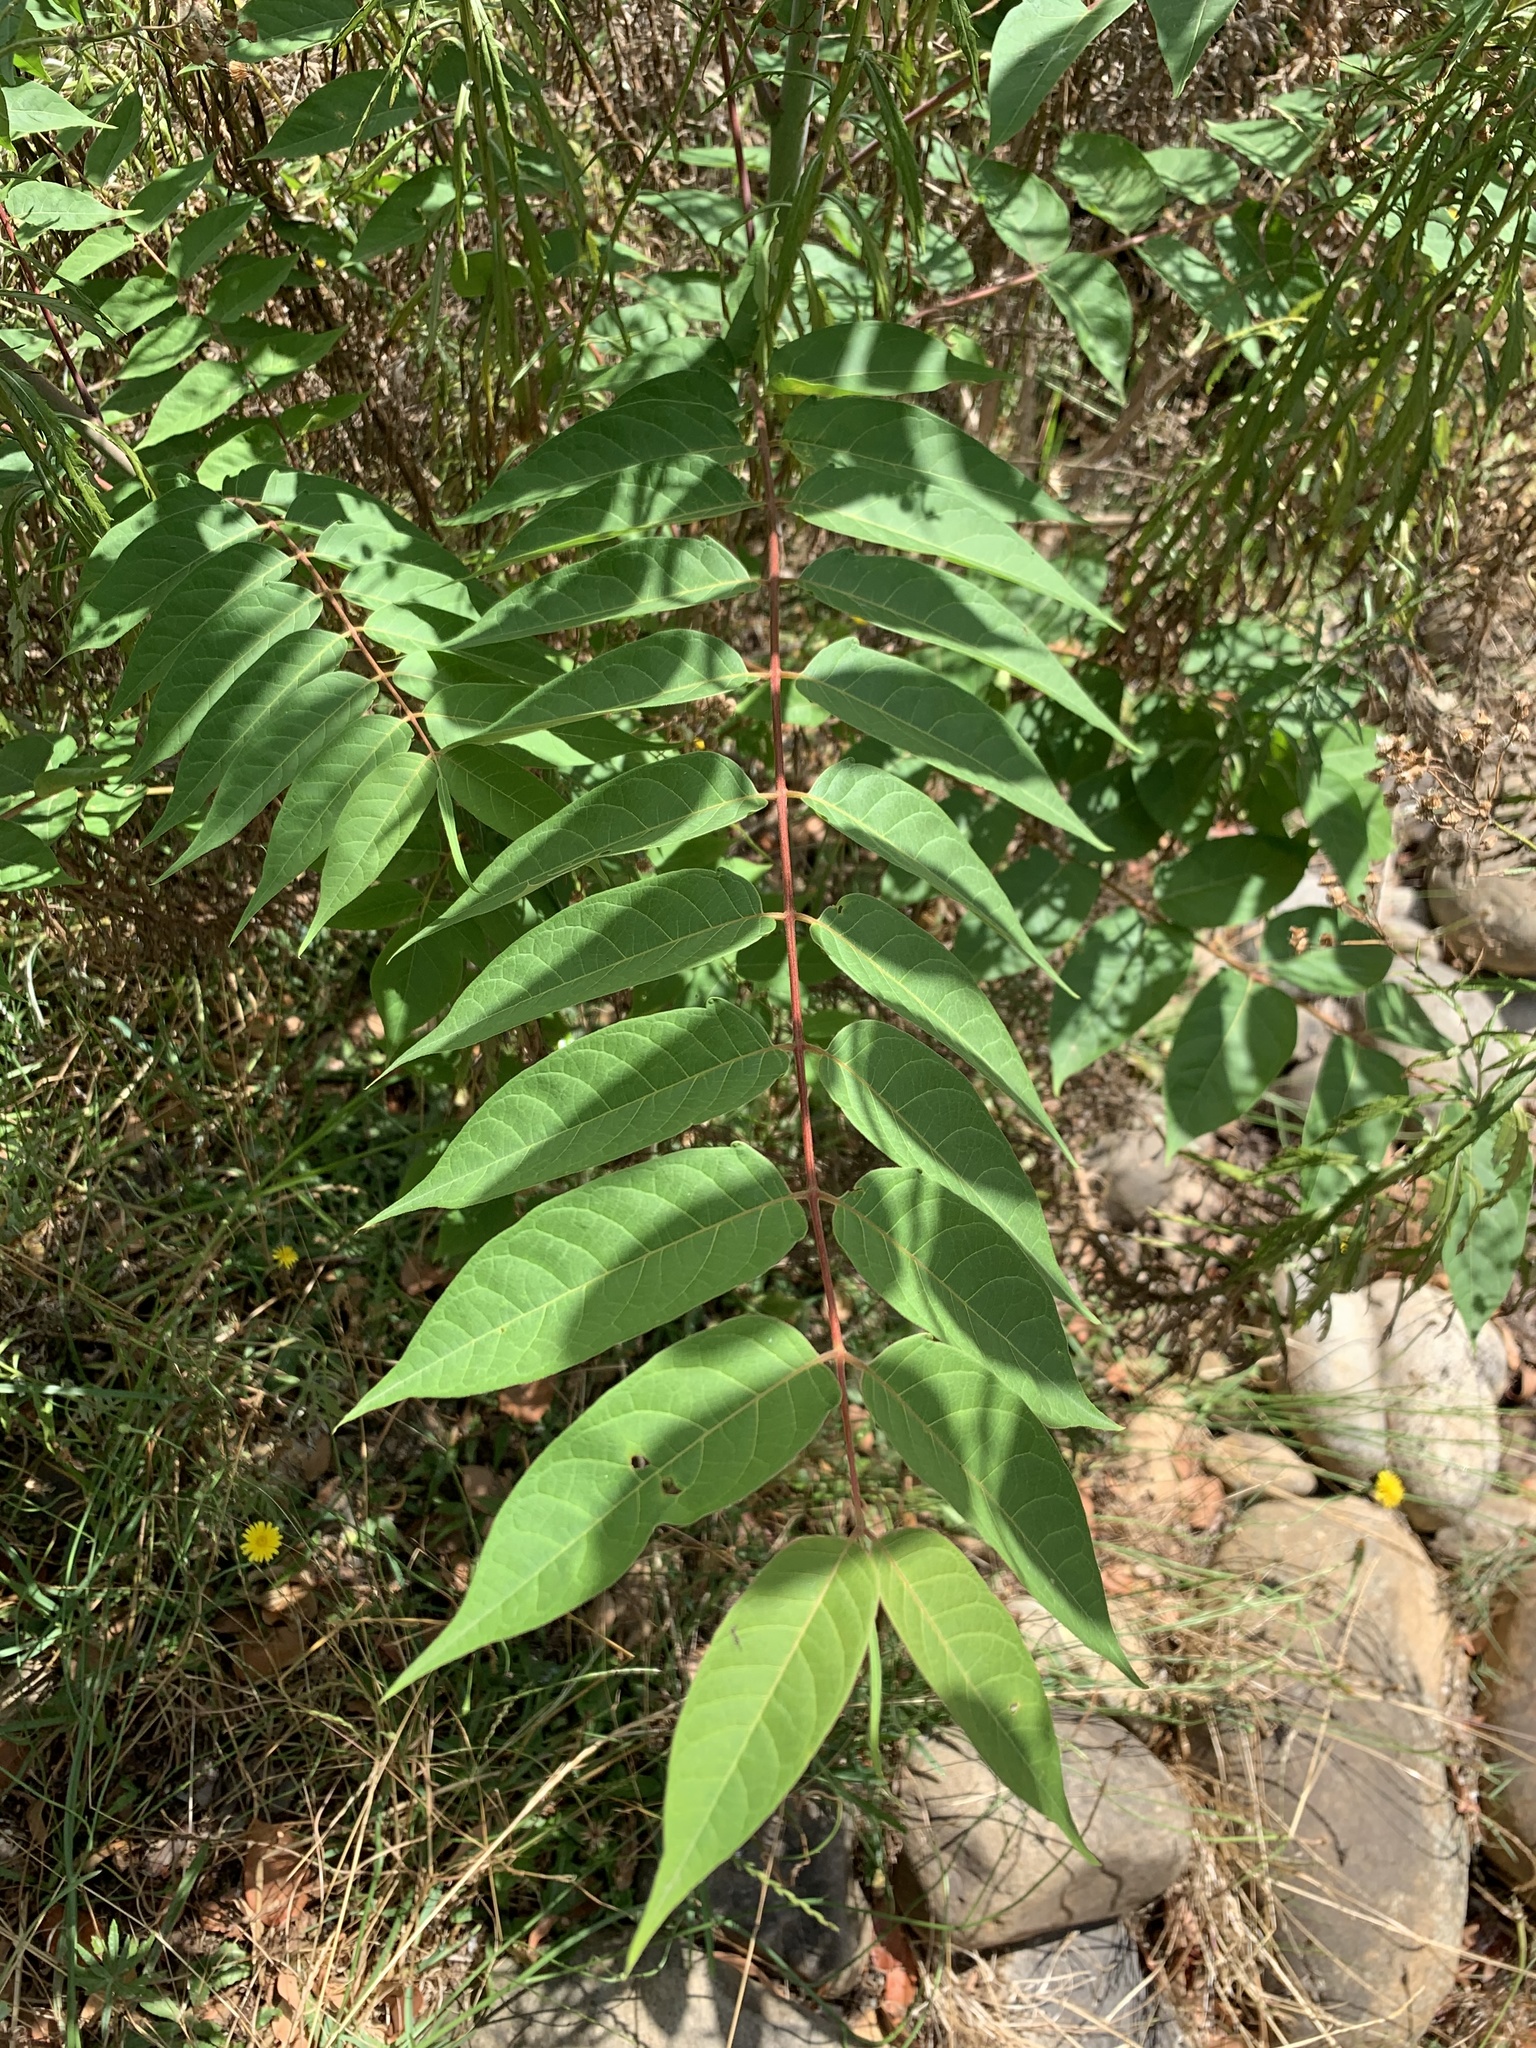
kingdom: Plantae
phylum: Tracheophyta
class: Magnoliopsida
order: Sapindales
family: Simaroubaceae
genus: Ailanthus
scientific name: Ailanthus altissima
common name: Tree-of-heaven
